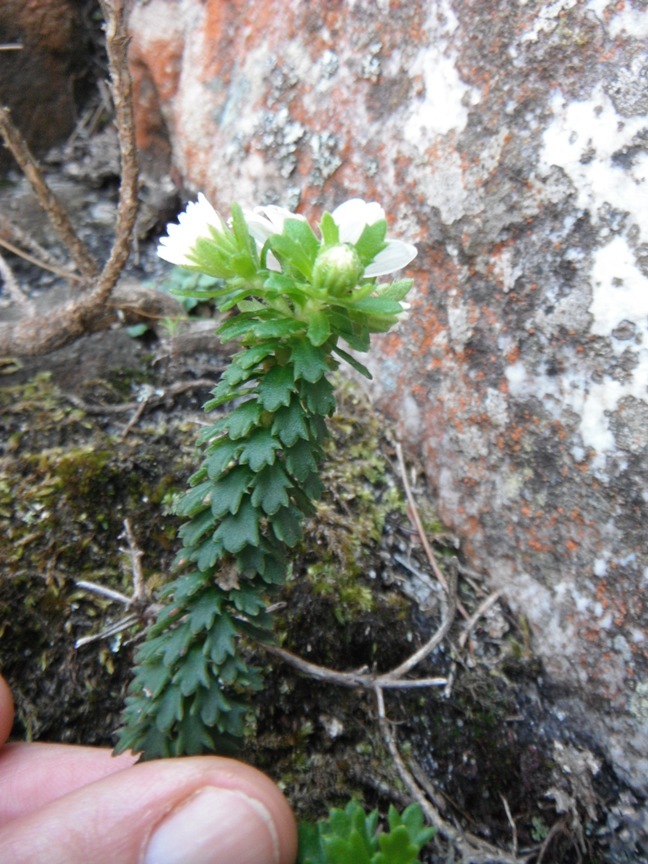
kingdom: Plantae
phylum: Tracheophyta
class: Magnoliopsida
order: Asterales
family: Asteraceae
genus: Osmitopsis
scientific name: Osmitopsis parvifolia
